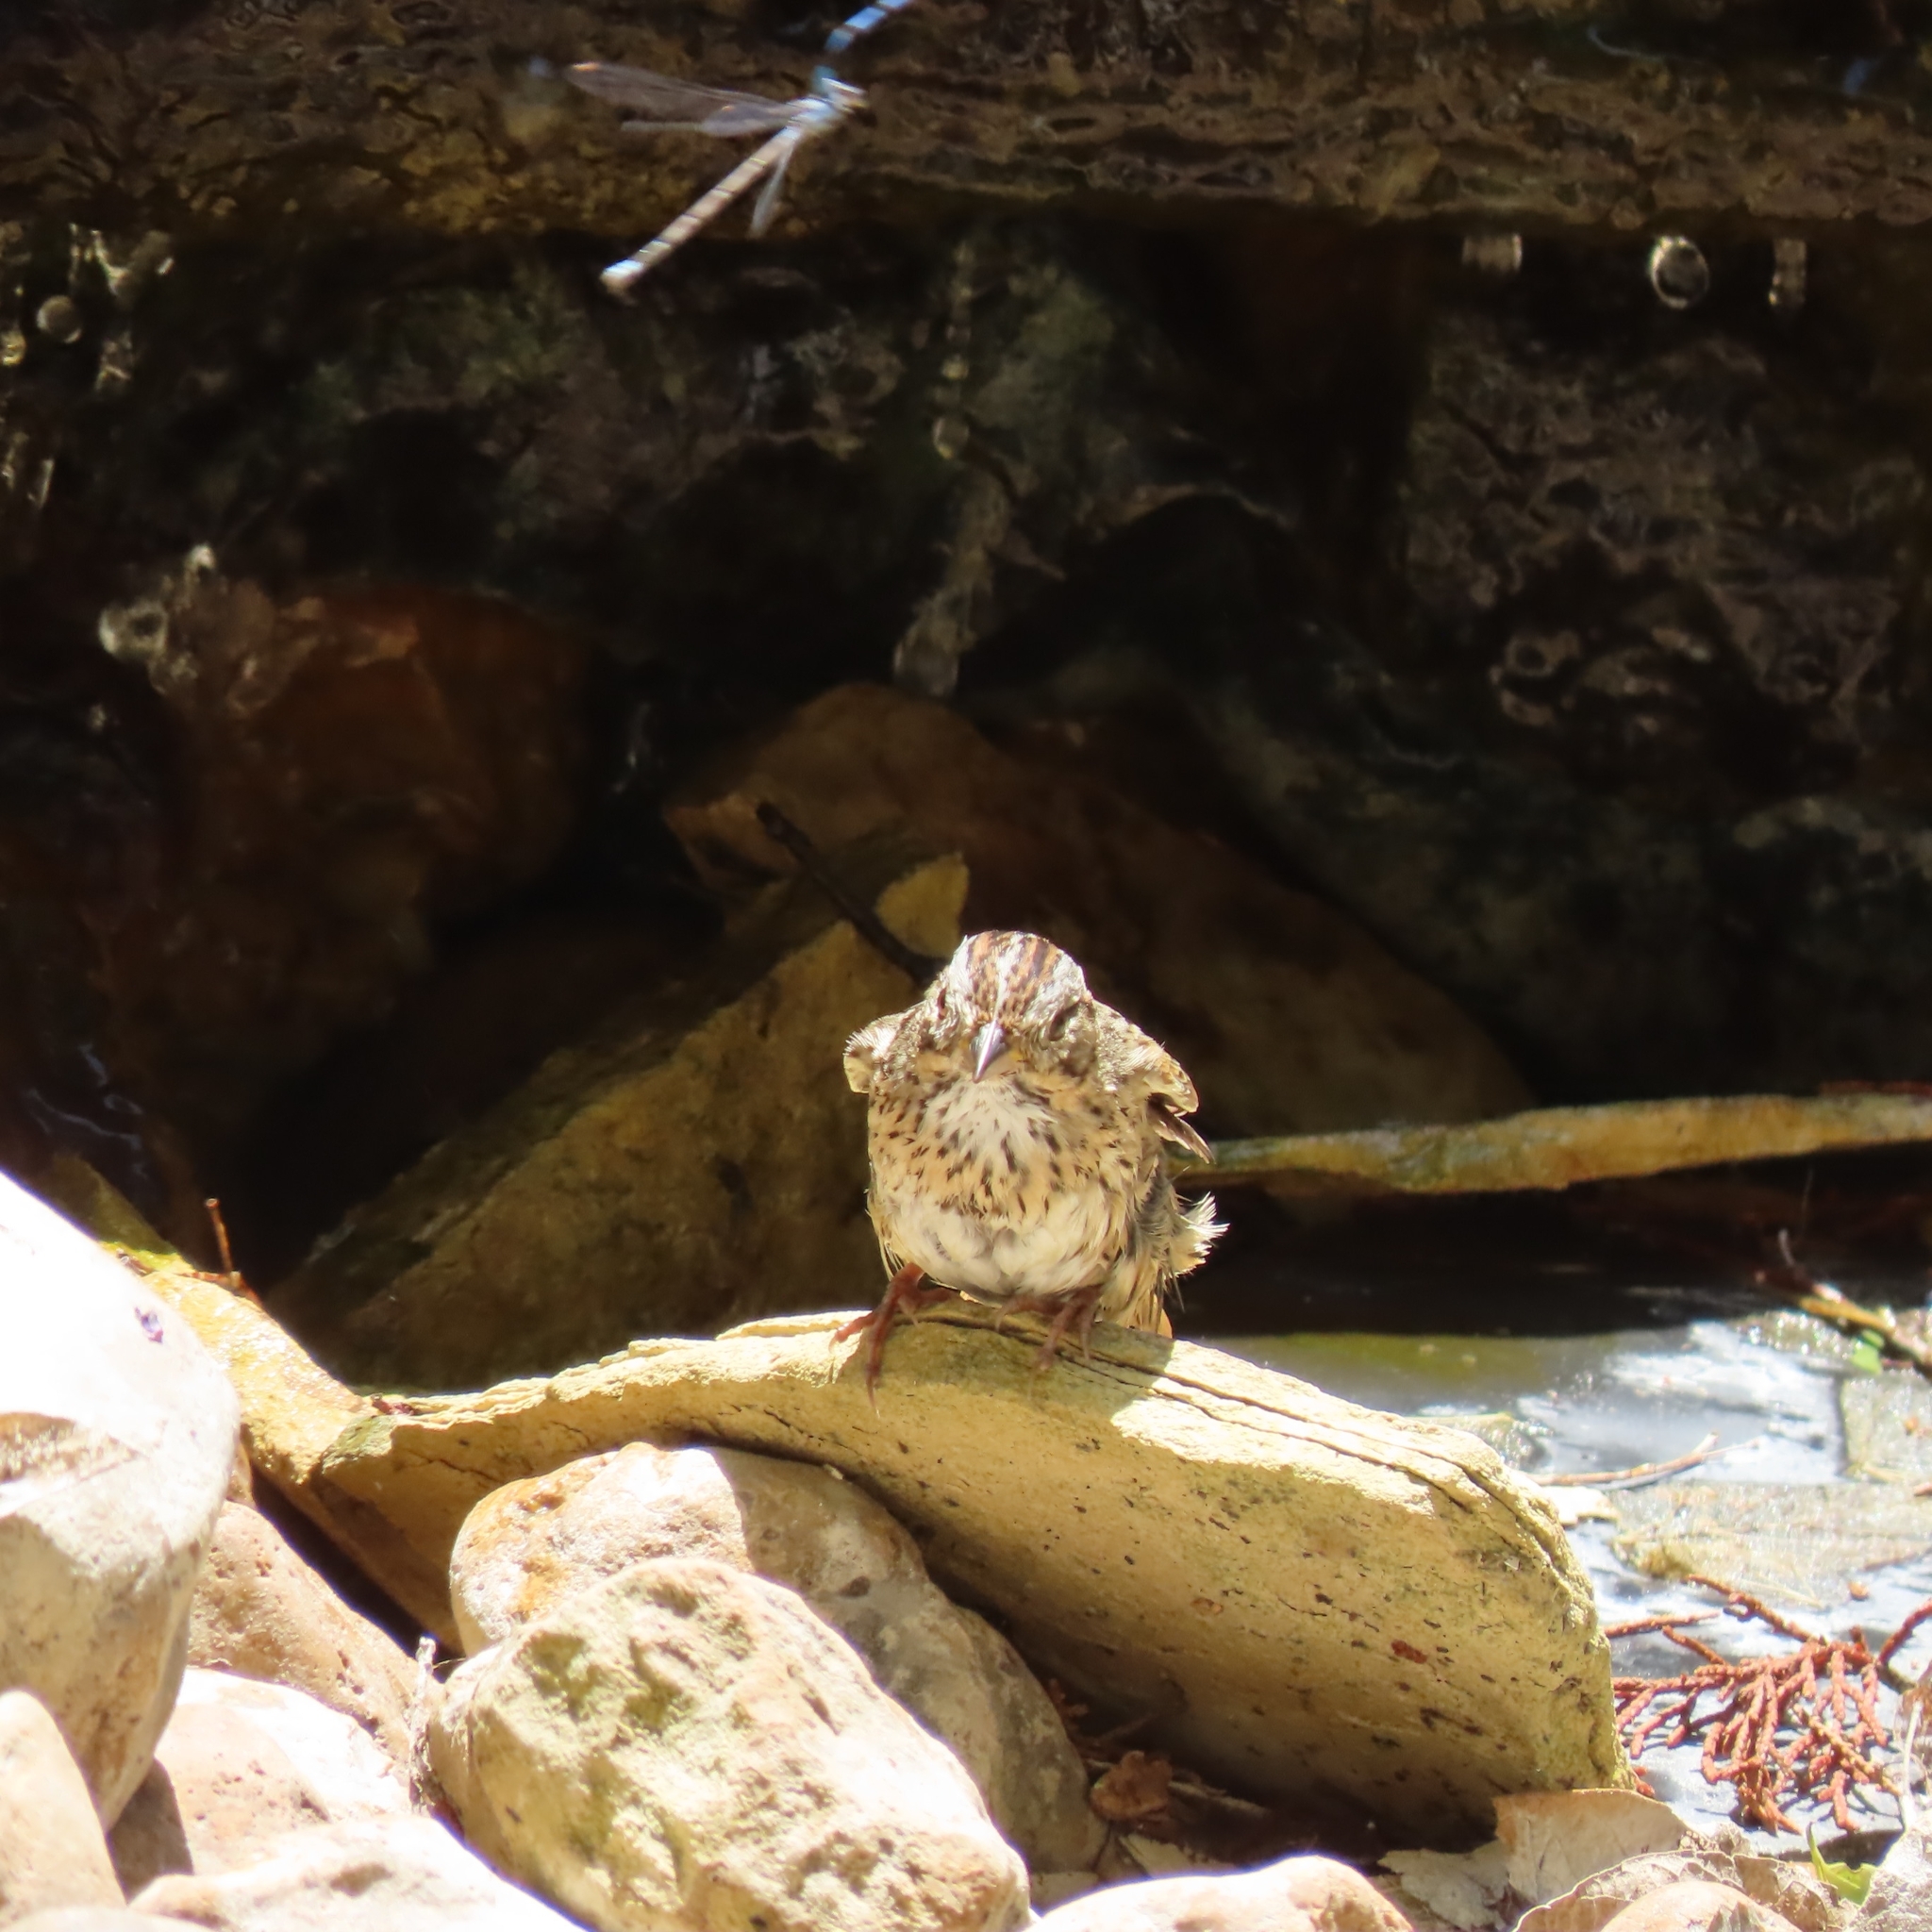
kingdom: Animalia
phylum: Chordata
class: Aves
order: Passeriformes
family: Passerellidae
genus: Melospiza
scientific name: Melospiza lincolnii
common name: Lincoln's sparrow
